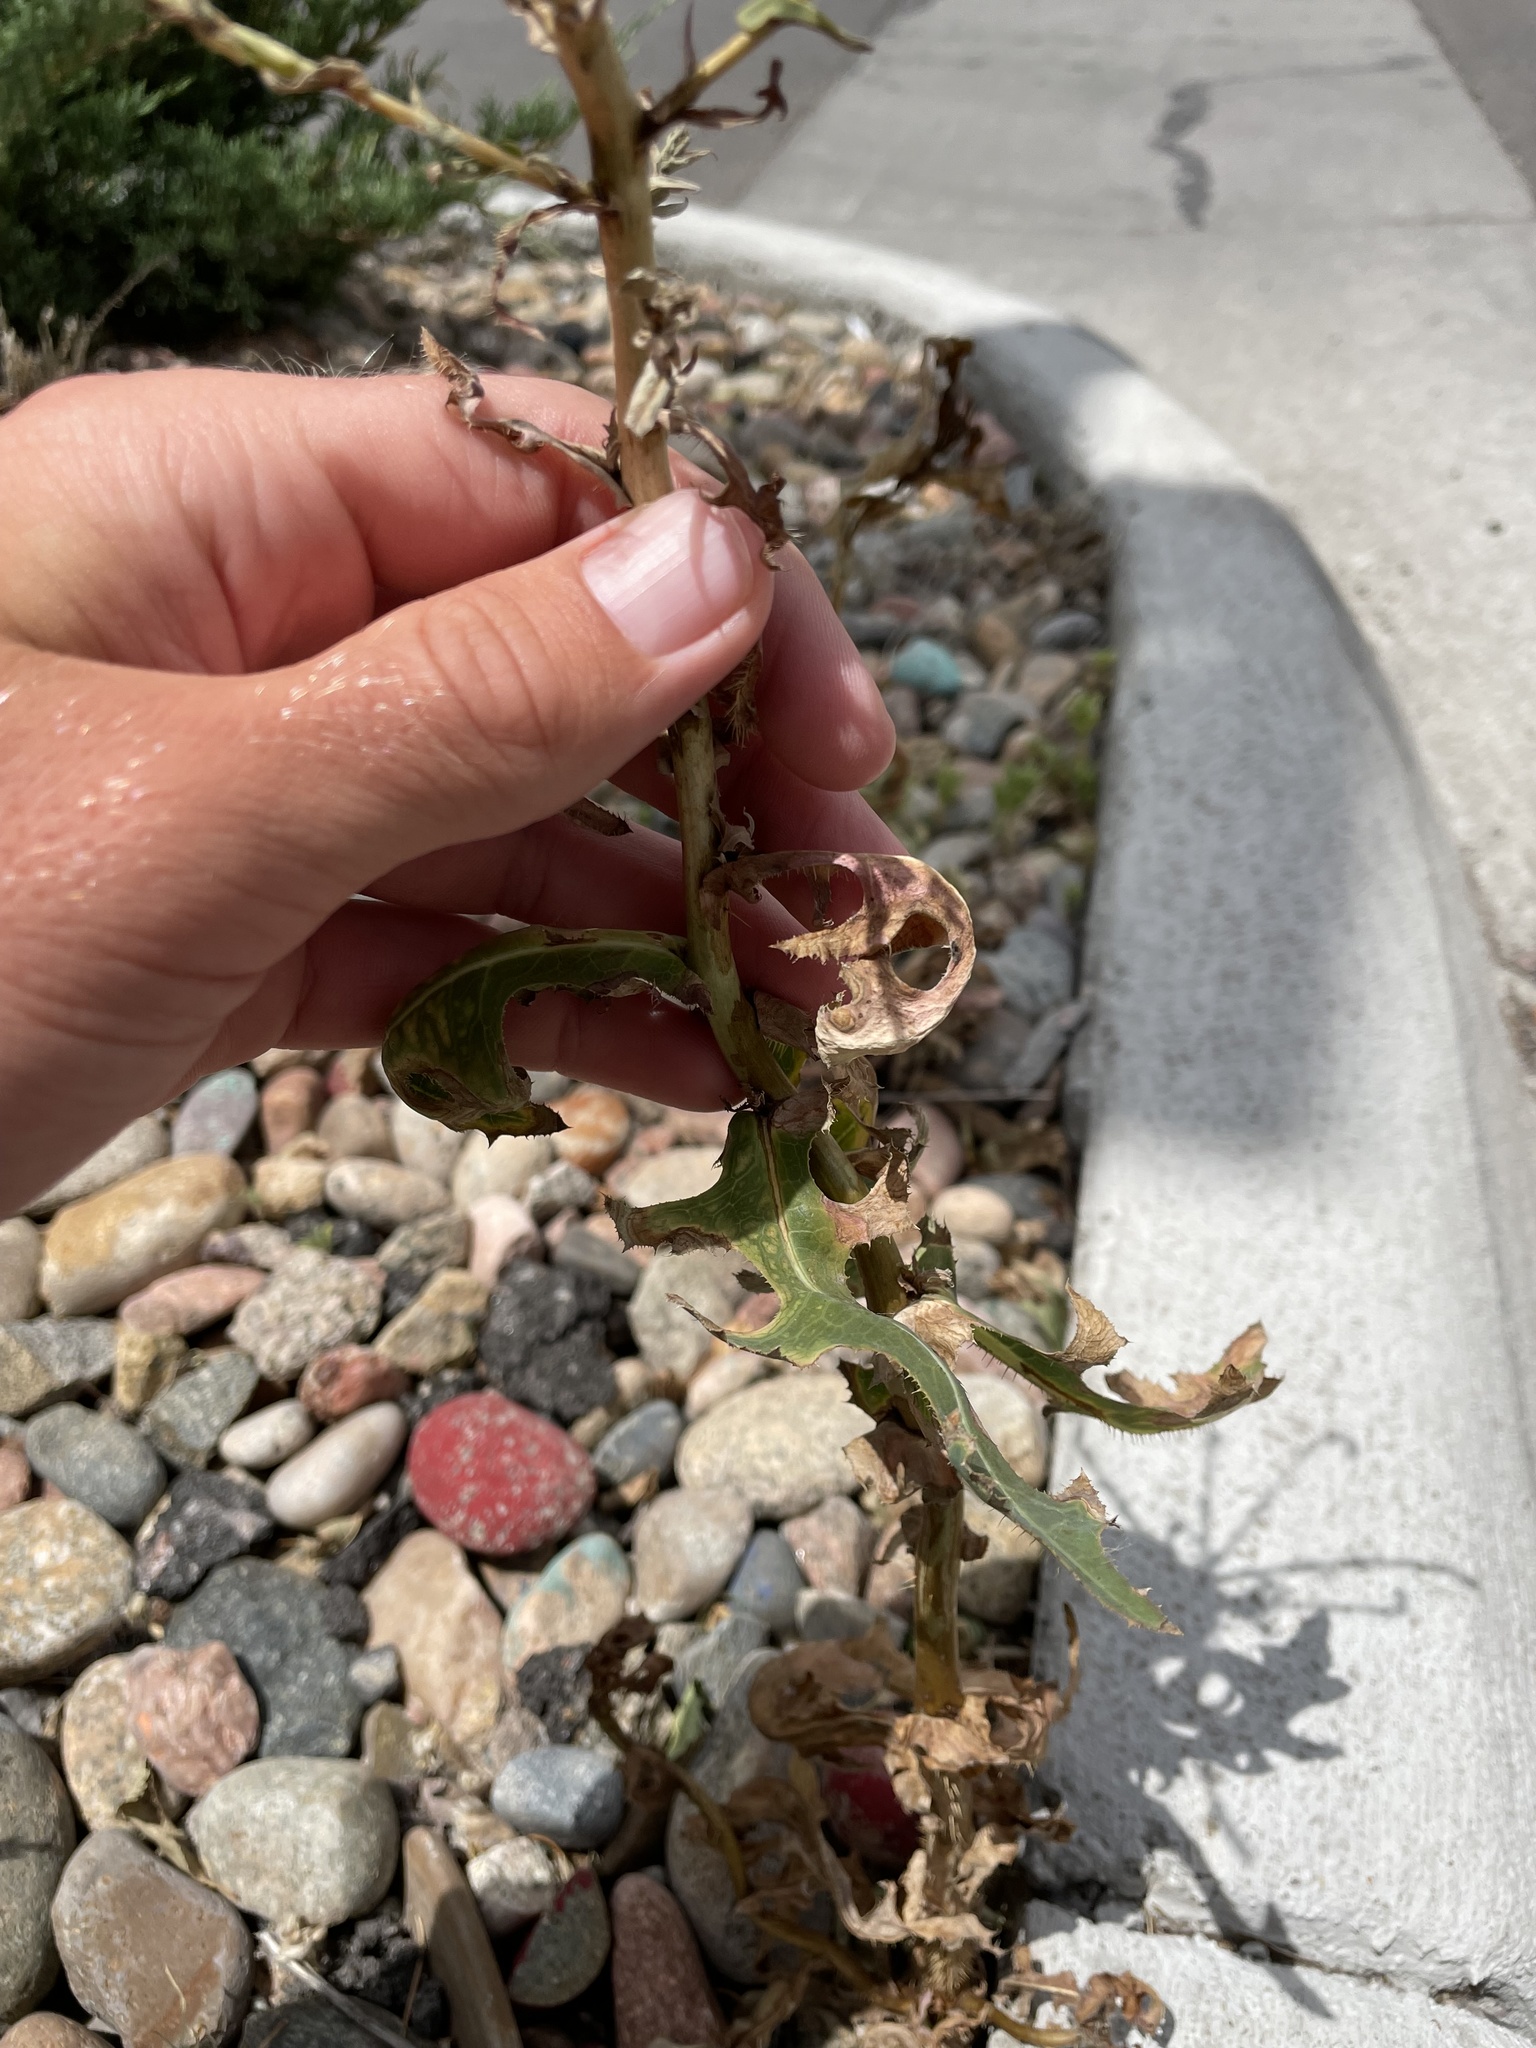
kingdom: Plantae
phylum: Tracheophyta
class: Magnoliopsida
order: Asterales
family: Asteraceae
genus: Lactuca
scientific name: Lactuca serriola
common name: Prickly lettuce
